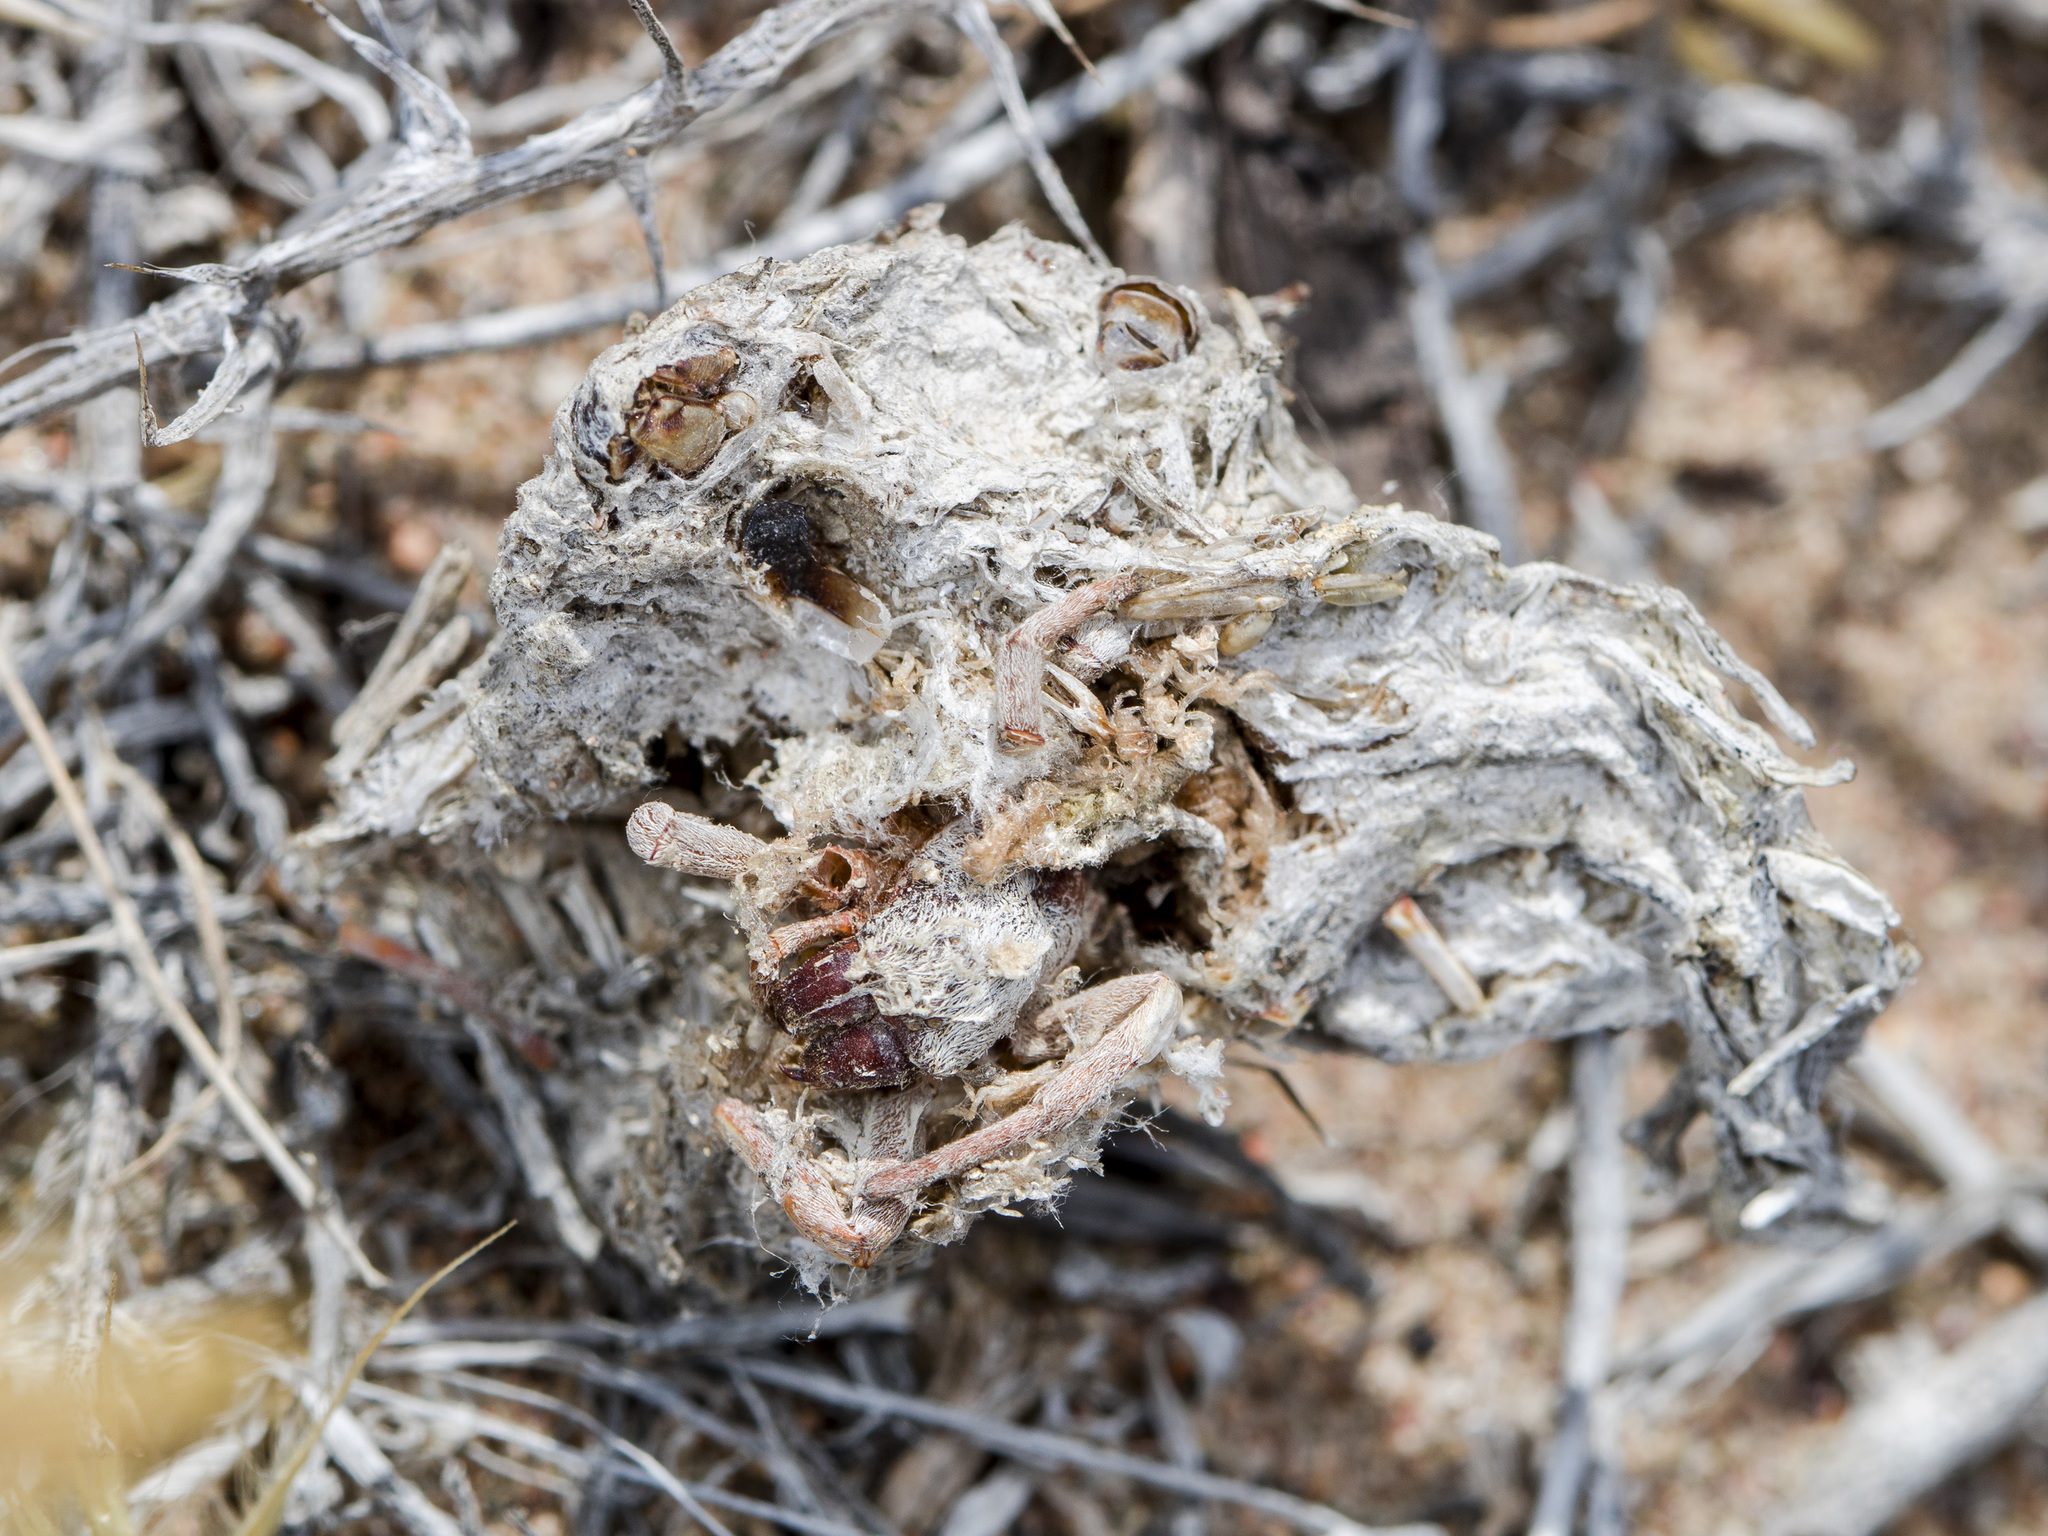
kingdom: Animalia
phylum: Arthropoda
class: Arachnida
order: Araneae
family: Eresidae
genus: Stegodyphus
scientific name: Stegodyphus lineatus
